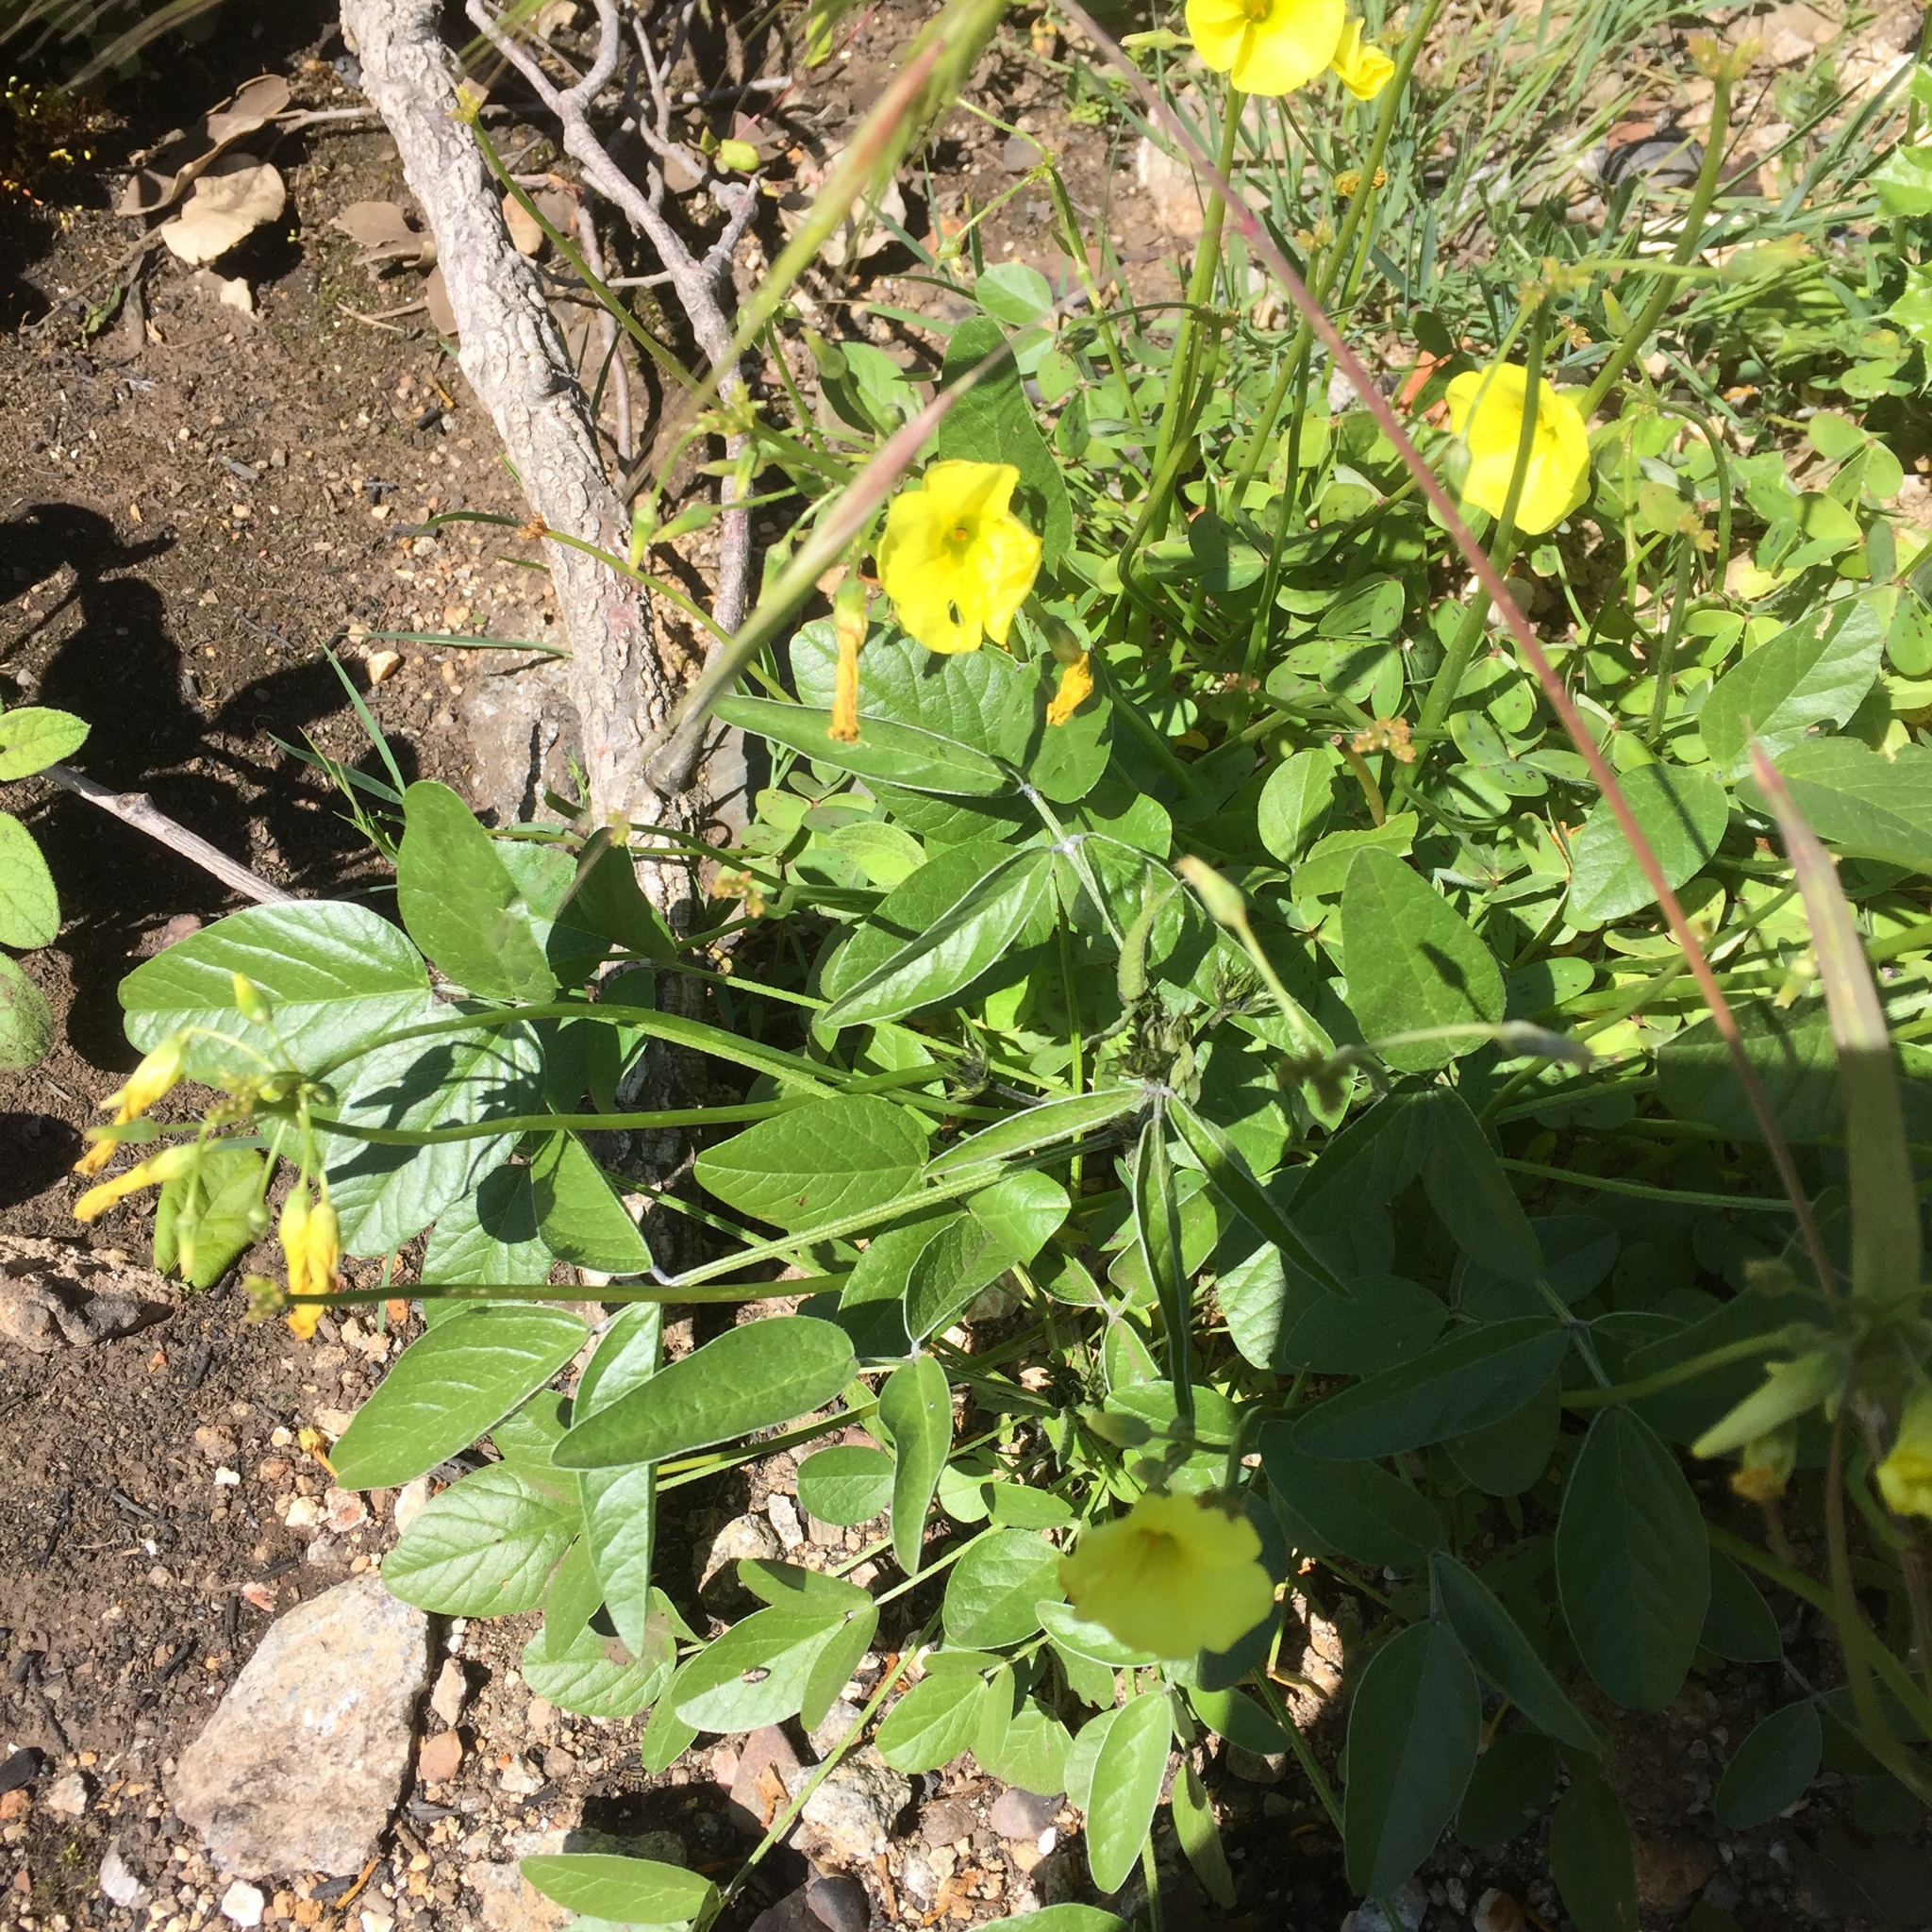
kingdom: Plantae
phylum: Tracheophyta
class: Magnoliopsida
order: Fabales
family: Fabaceae
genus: Bituminaria
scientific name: Bituminaria bituminosa
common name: Arabian pea
